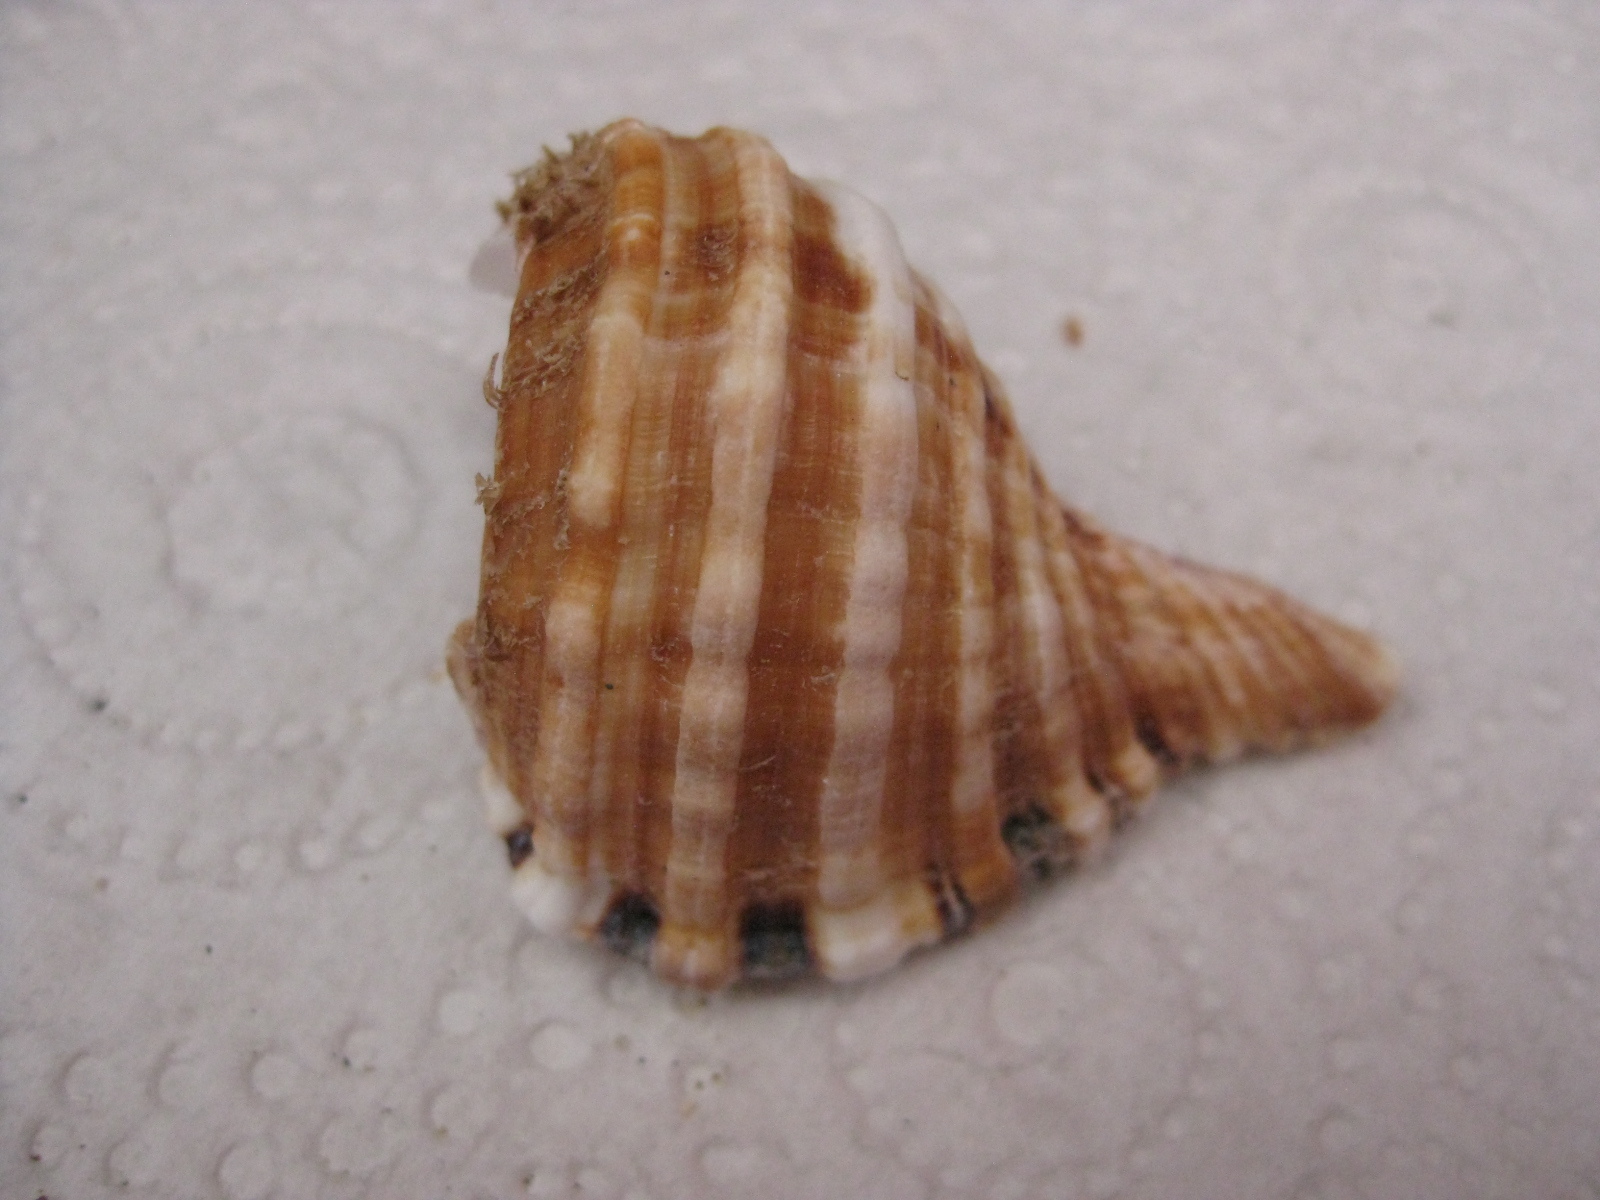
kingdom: Animalia
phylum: Mollusca
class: Gastropoda
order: Littorinimorpha
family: Cymatiidae
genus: Monoplex
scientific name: Monoplex parthenopeus
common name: Giant triton
